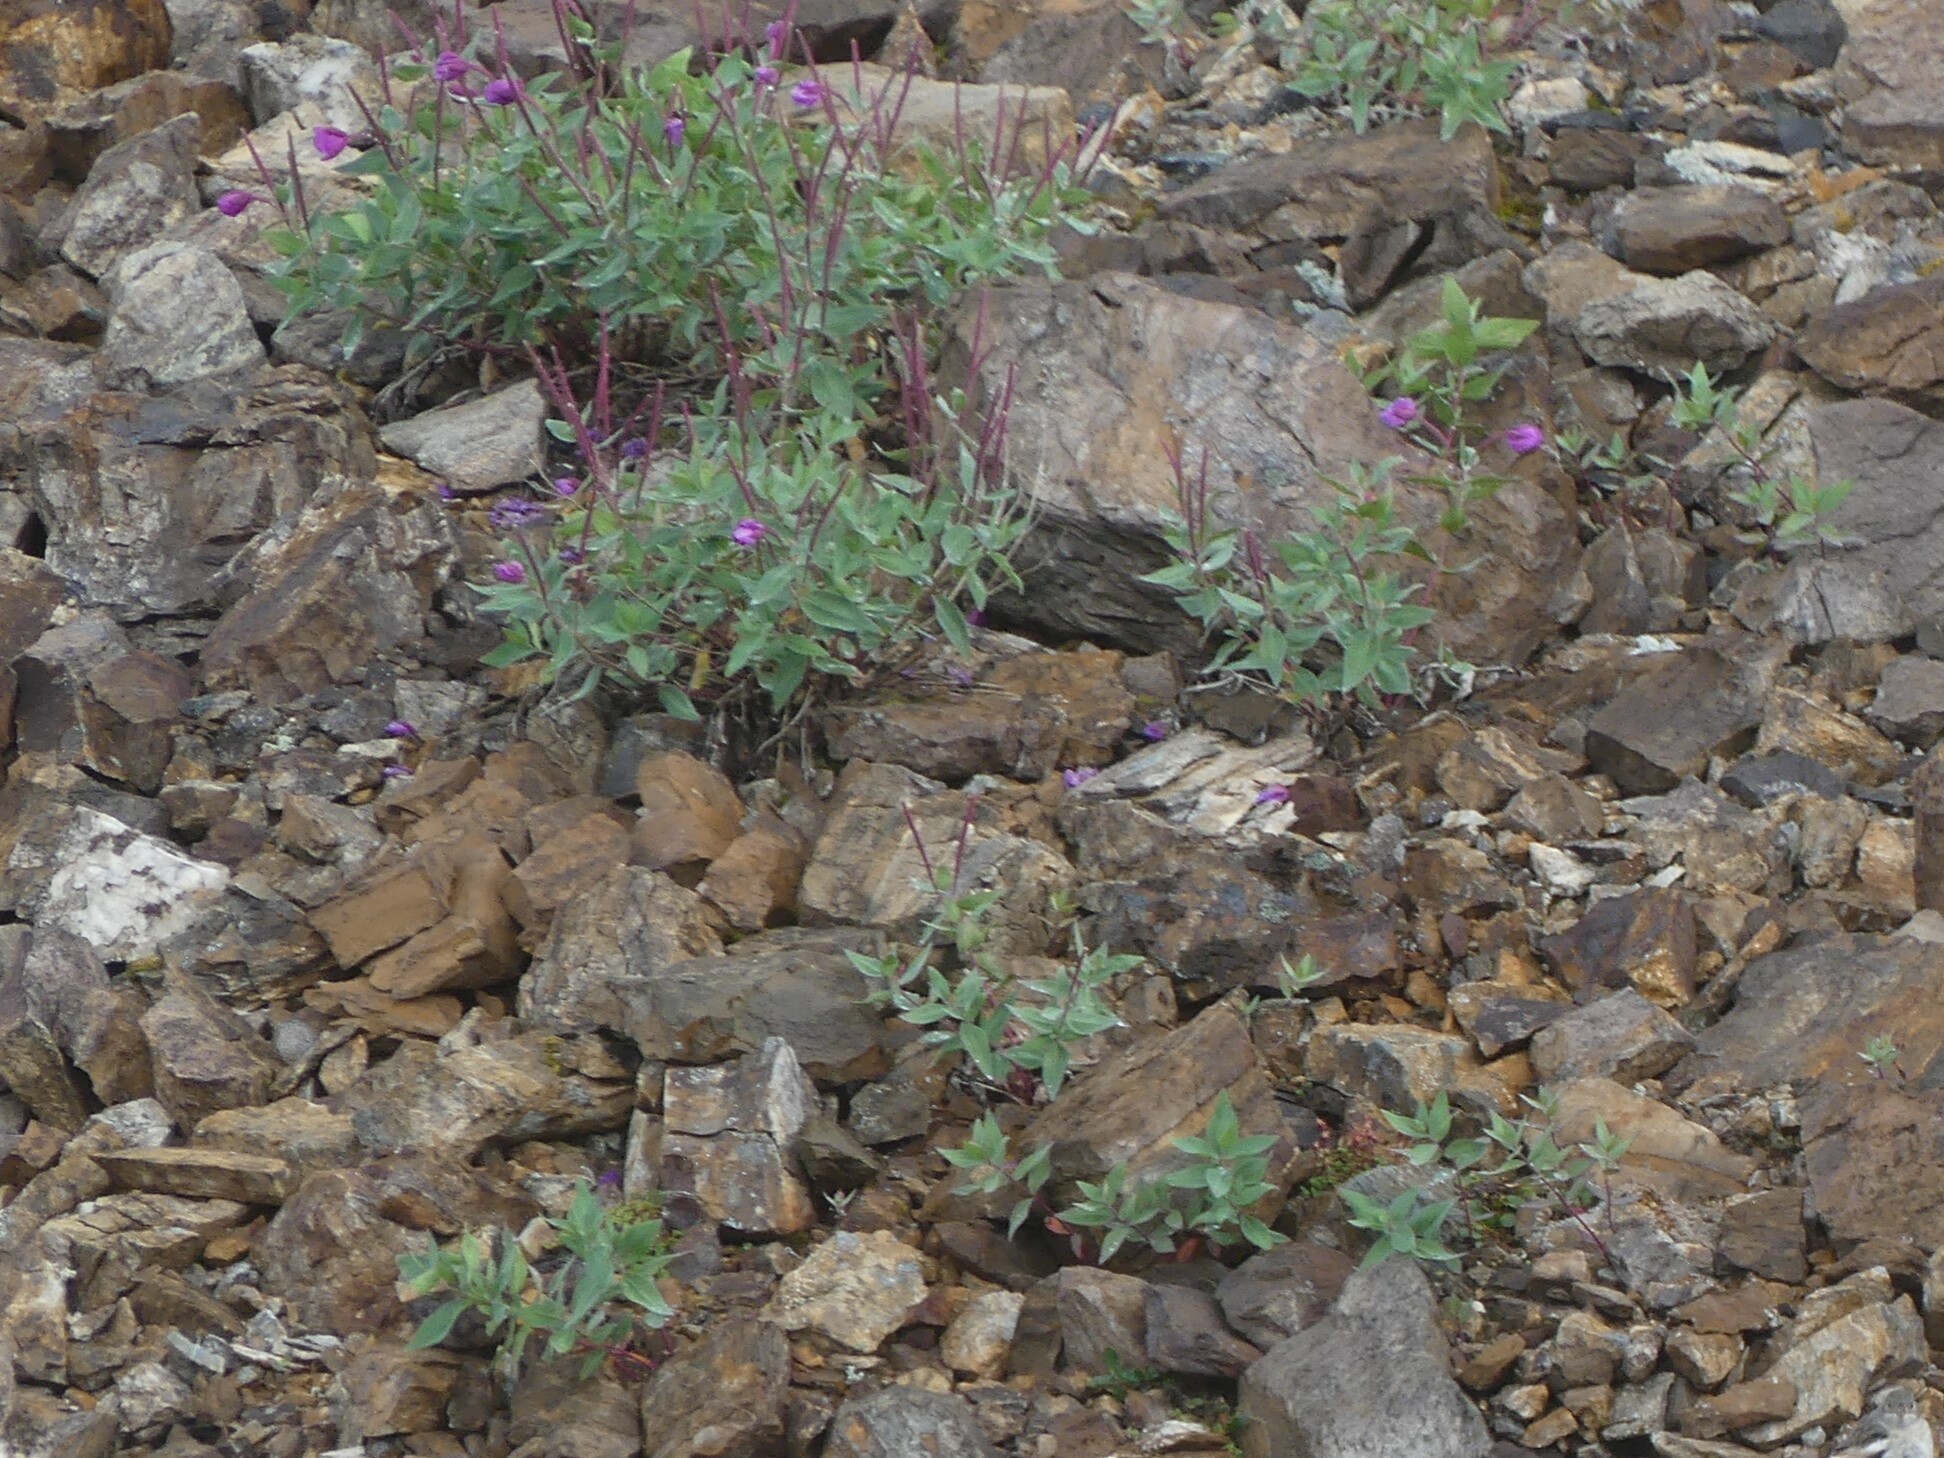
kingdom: Plantae
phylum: Tracheophyta
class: Magnoliopsida
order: Myrtales
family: Onagraceae
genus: Chamaenerion
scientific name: Chamaenerion latifolium
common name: Dwarf fireweed
